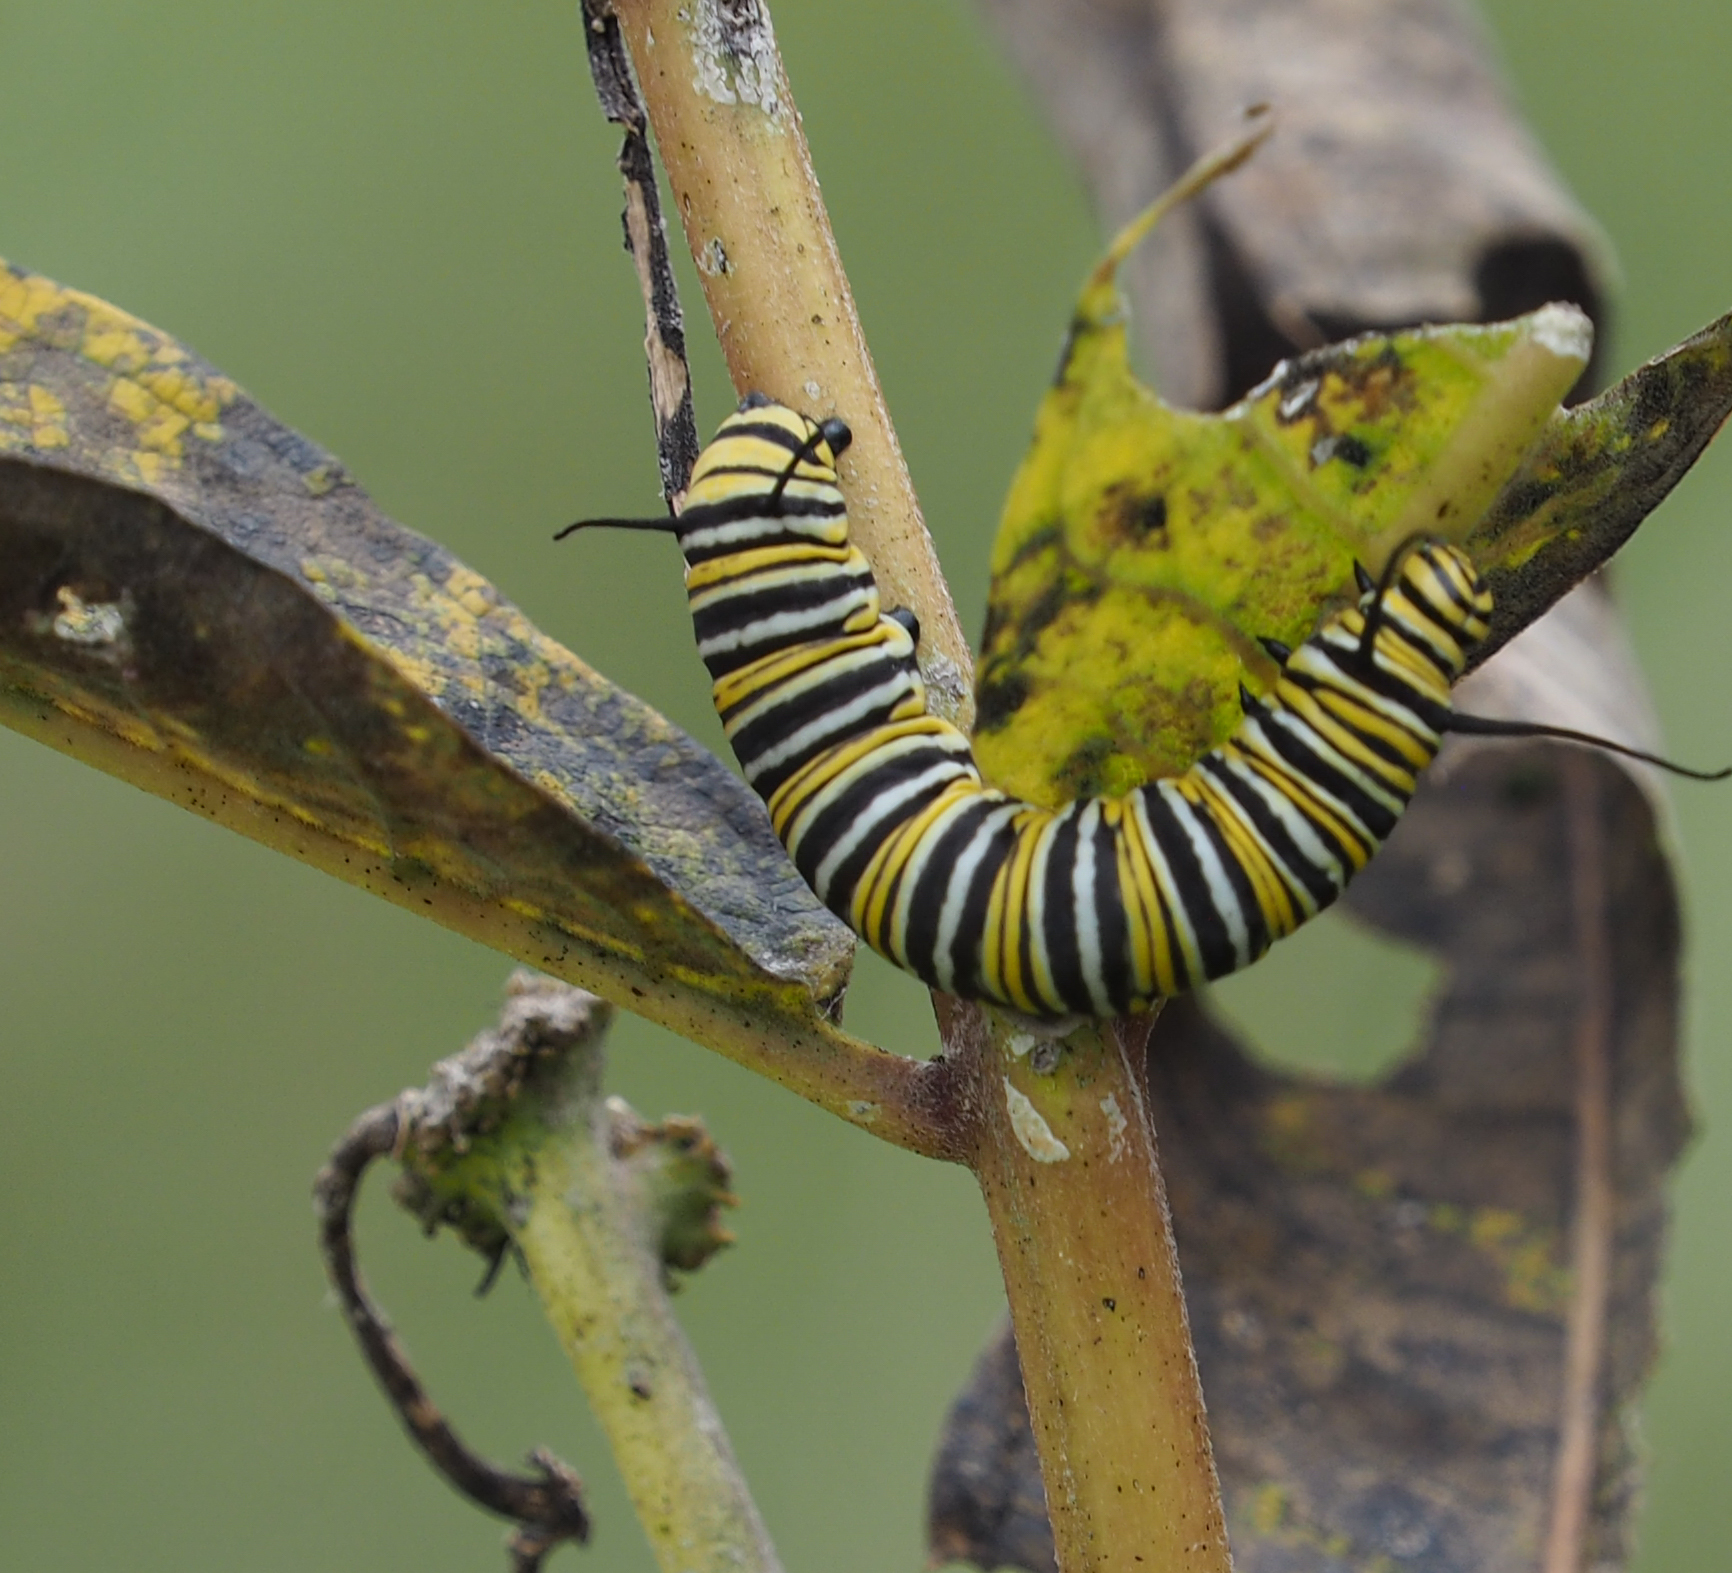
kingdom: Animalia
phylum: Arthropoda
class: Insecta
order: Lepidoptera
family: Nymphalidae
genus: Danaus
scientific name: Danaus plexippus
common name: Monarch
